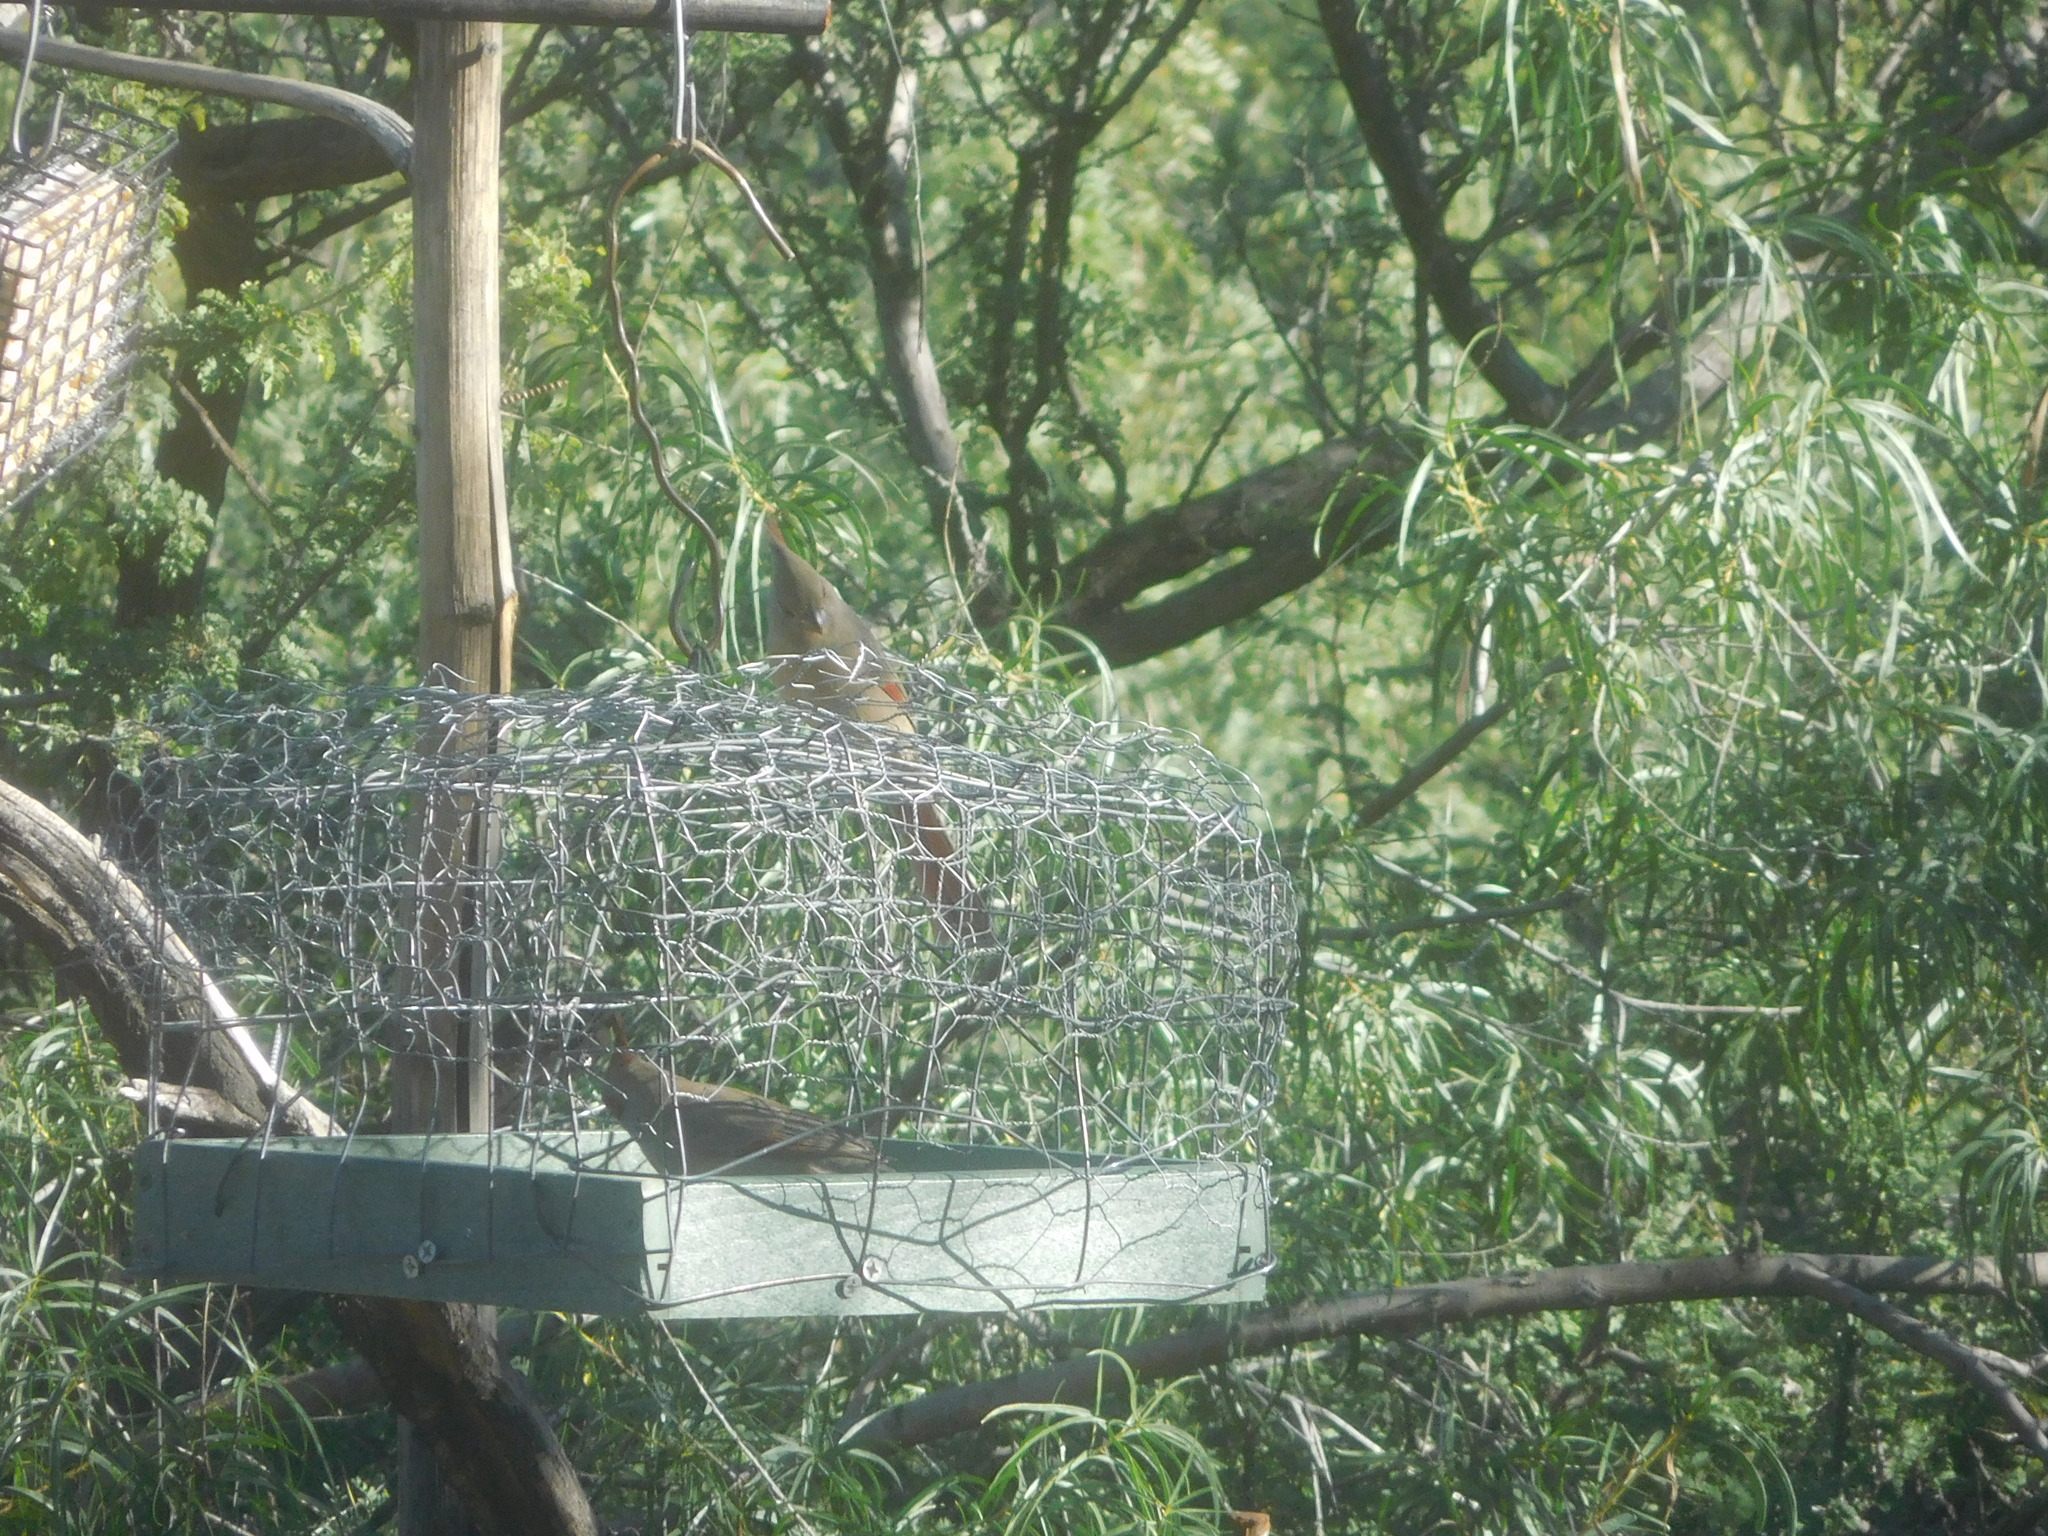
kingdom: Animalia
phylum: Chordata
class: Aves
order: Passeriformes
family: Cardinalidae
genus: Cardinalis
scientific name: Cardinalis sinuatus
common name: Pyrrhuloxia
